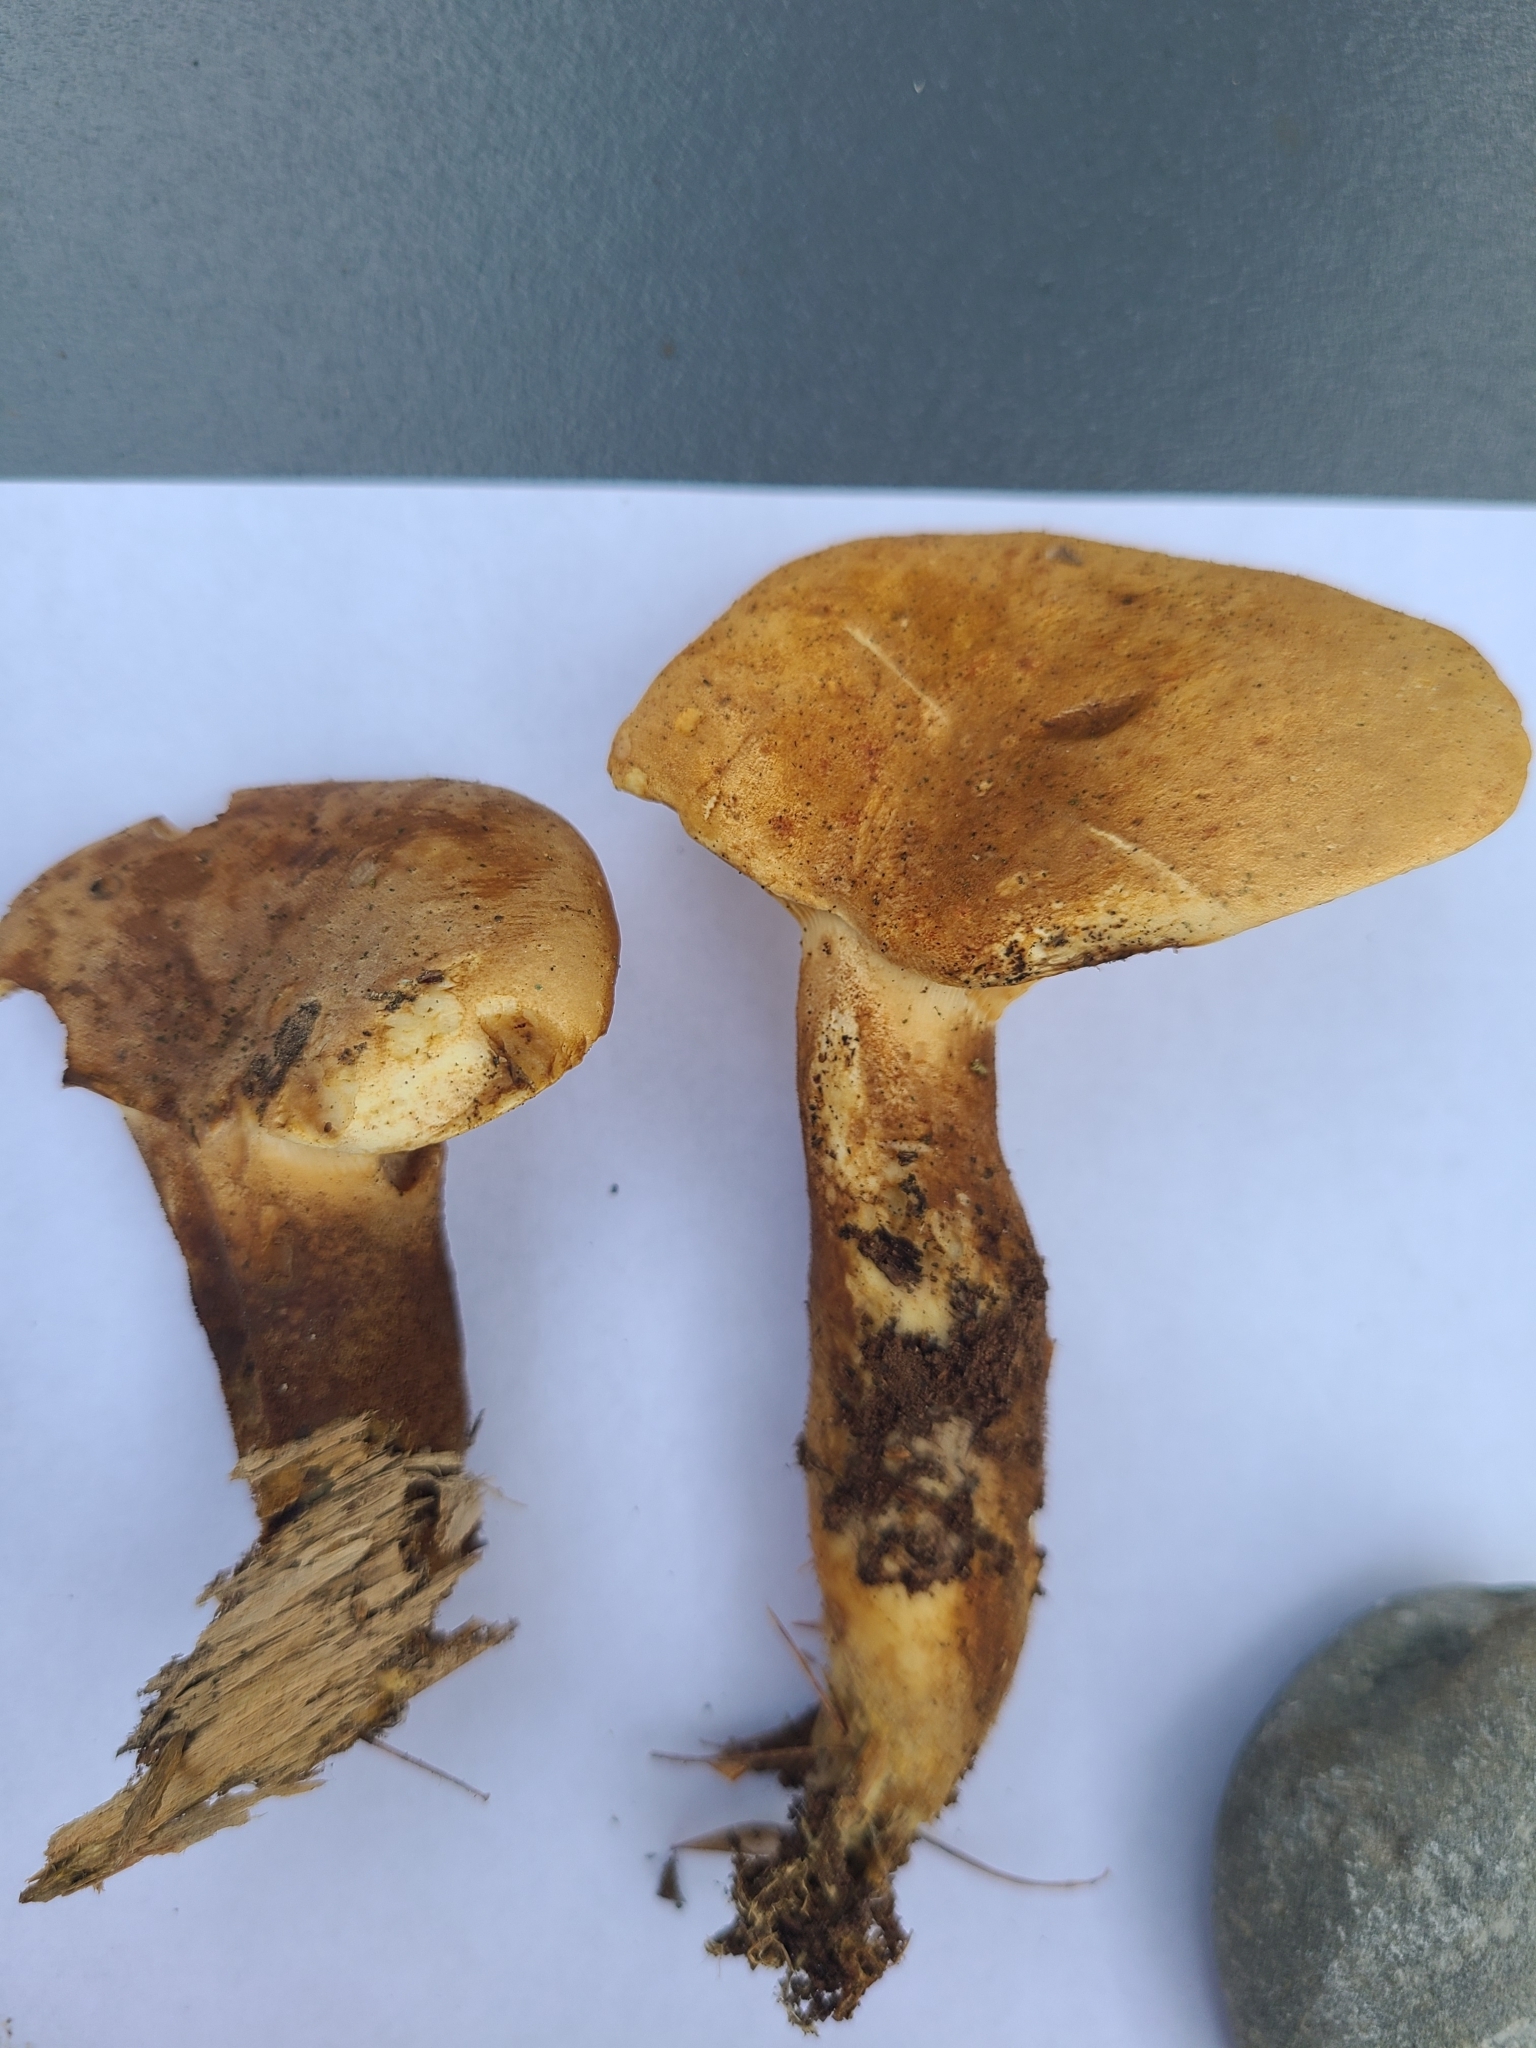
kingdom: Fungi
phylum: Basidiomycota
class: Agaricomycetes
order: Boletales
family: Tapinellaceae
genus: Tapinella
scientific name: Tapinella atrotomentosa
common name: Velvet rollrim
